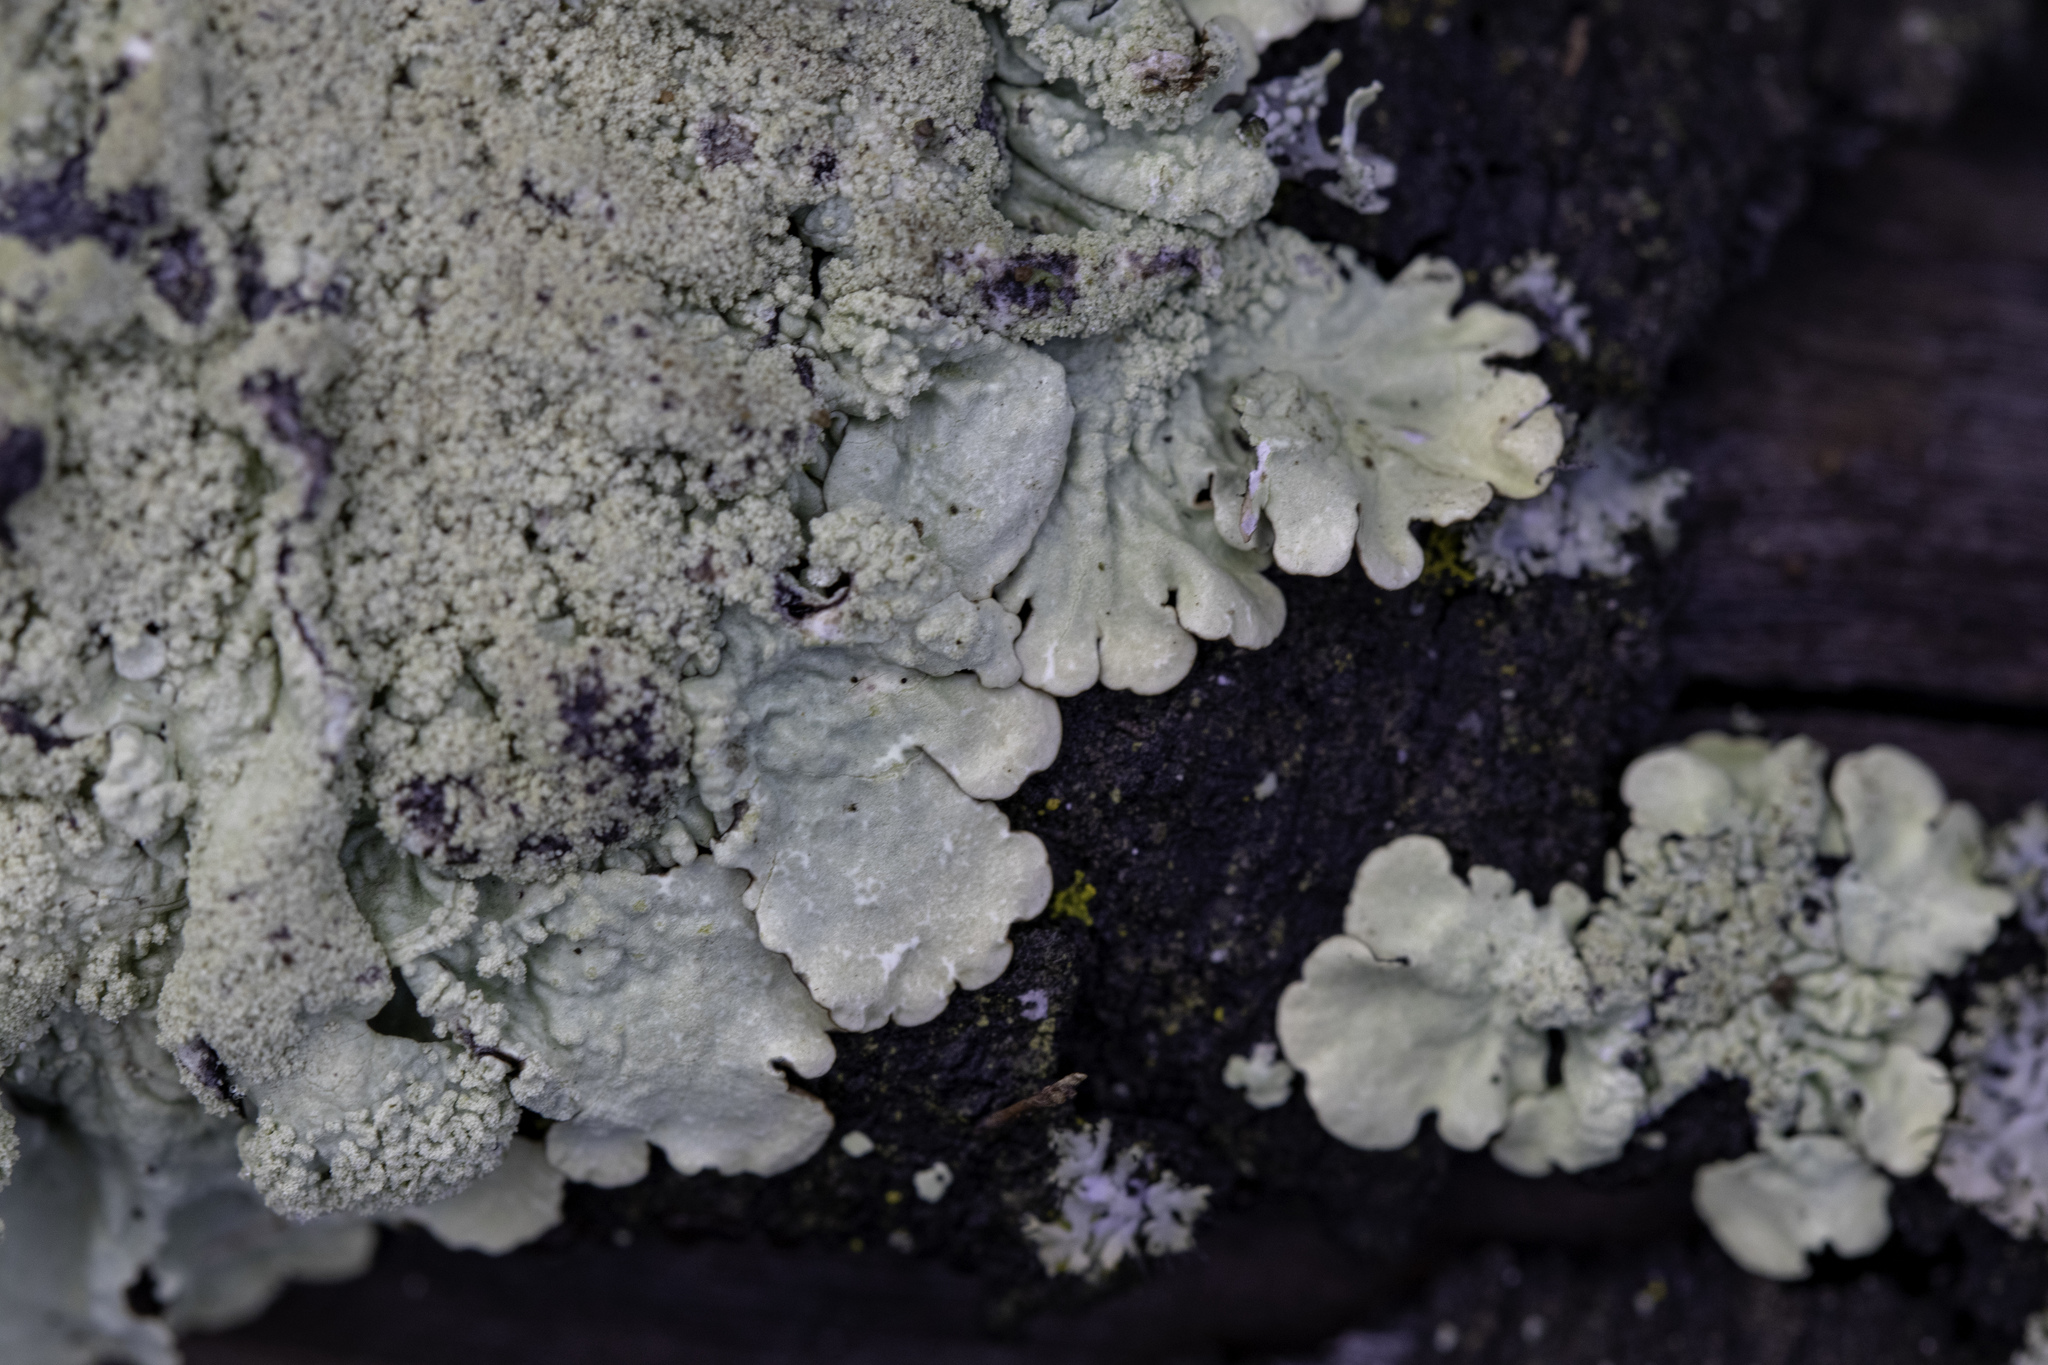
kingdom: Fungi
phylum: Ascomycota
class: Lecanoromycetes
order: Lecanorales
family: Parmeliaceae
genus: Flavoparmelia
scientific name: Flavoparmelia caperata
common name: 40-mile per hour lichen
